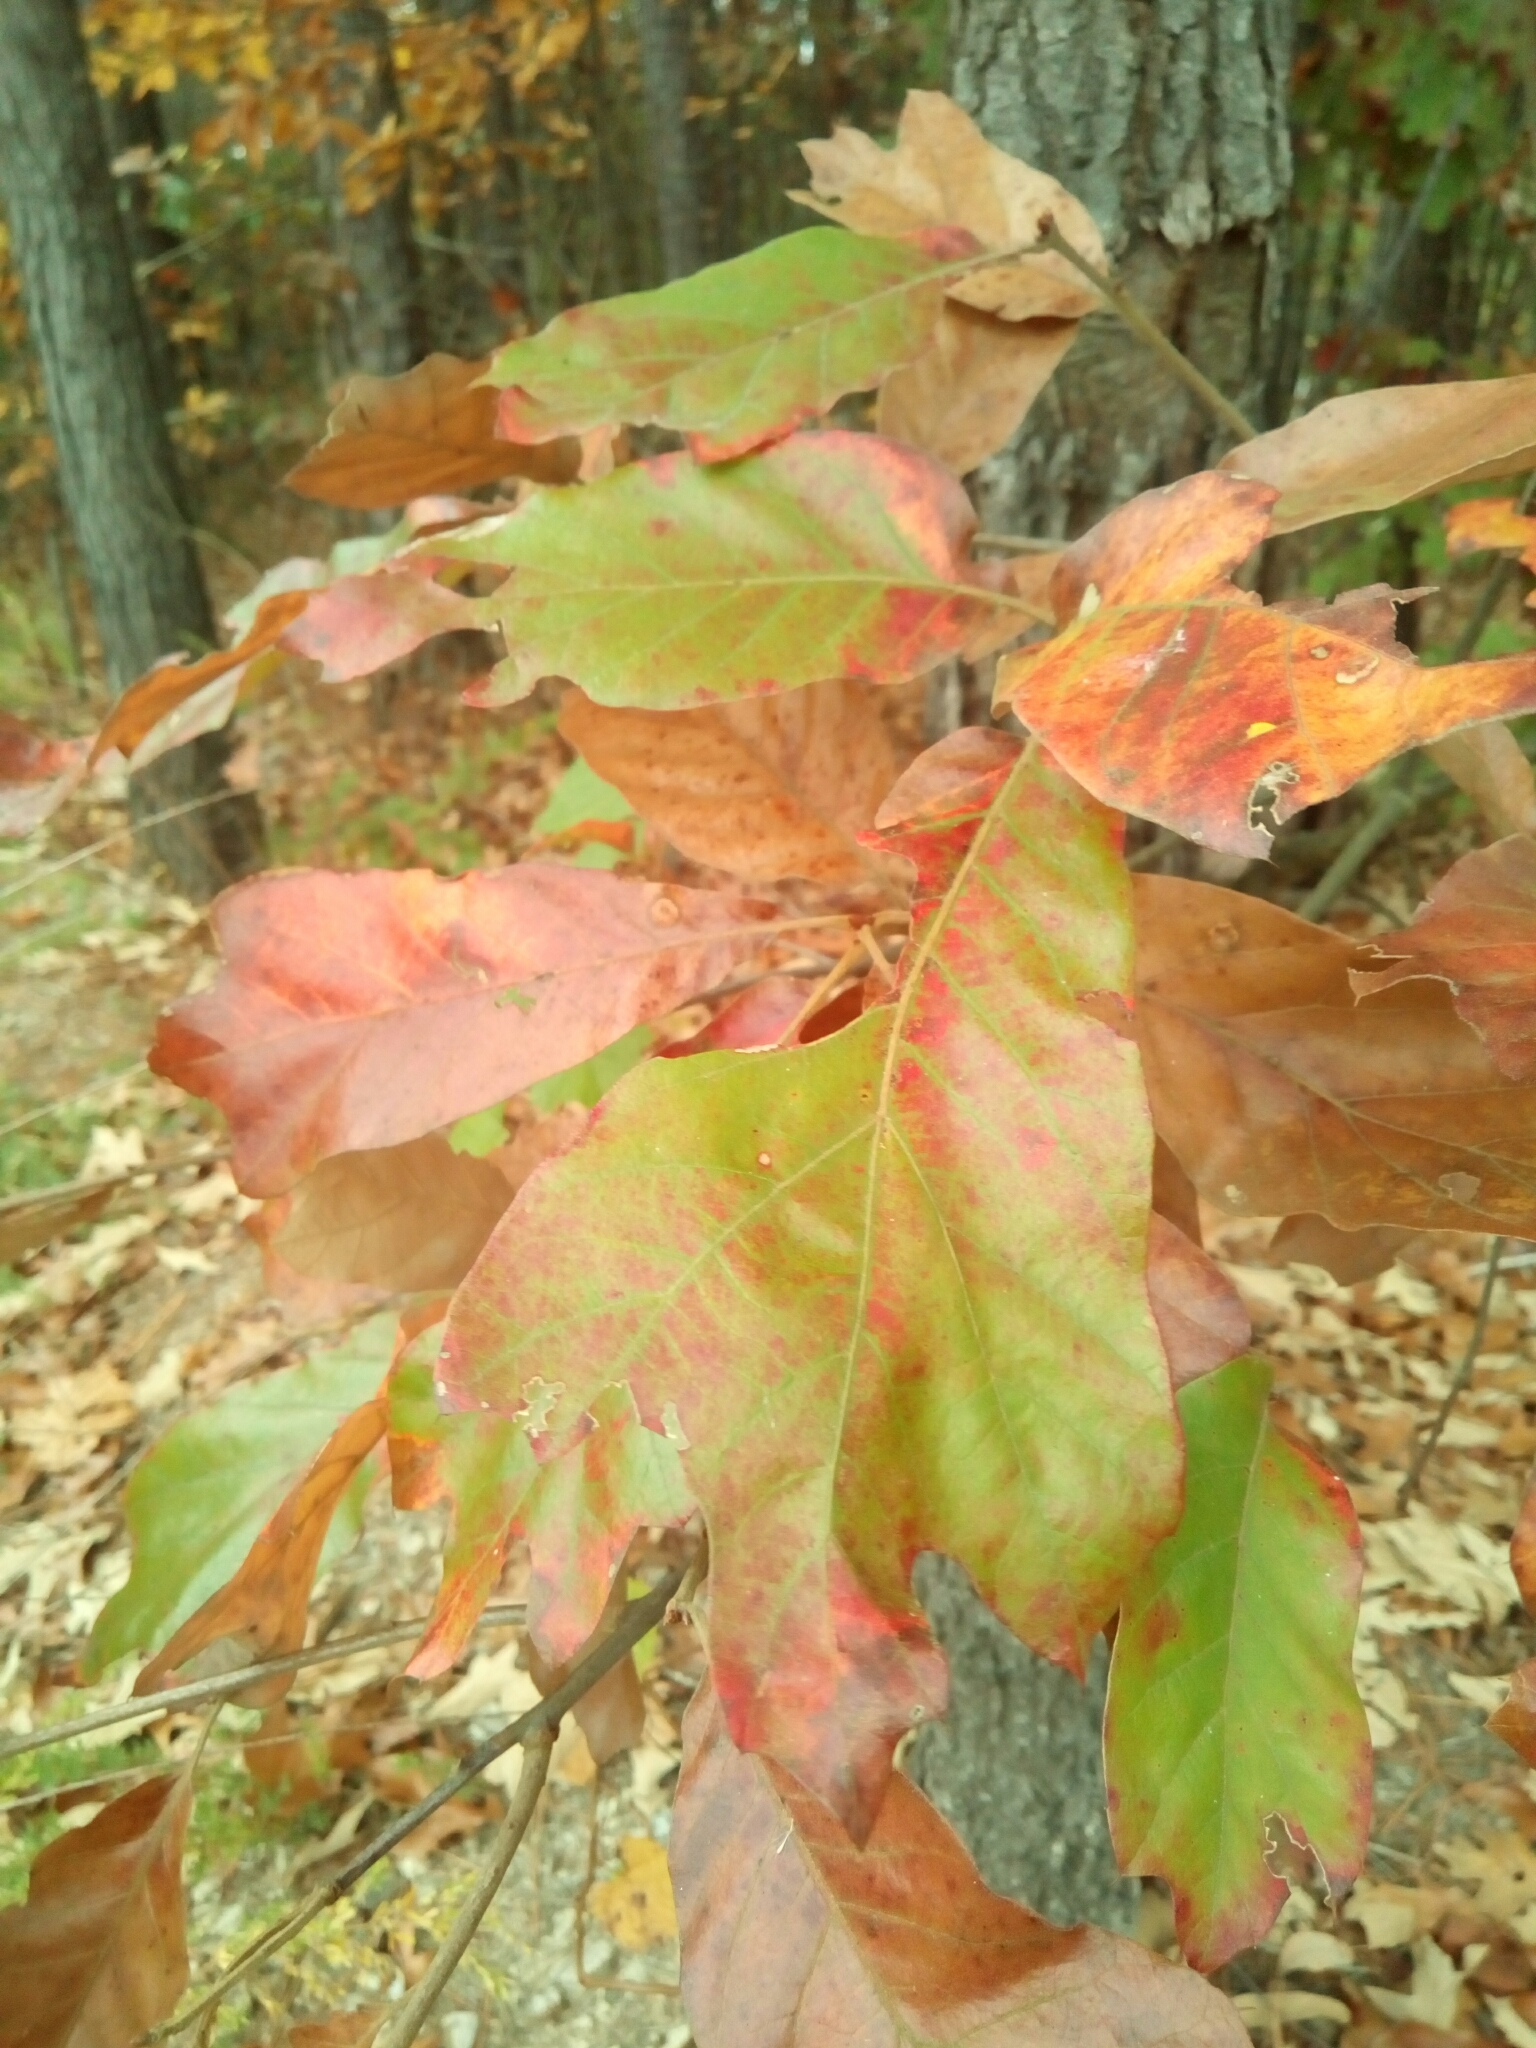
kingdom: Plantae
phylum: Tracheophyta
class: Magnoliopsida
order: Fagales
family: Fagaceae
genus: Quercus
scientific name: Quercus falcata
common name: Southern red oak
